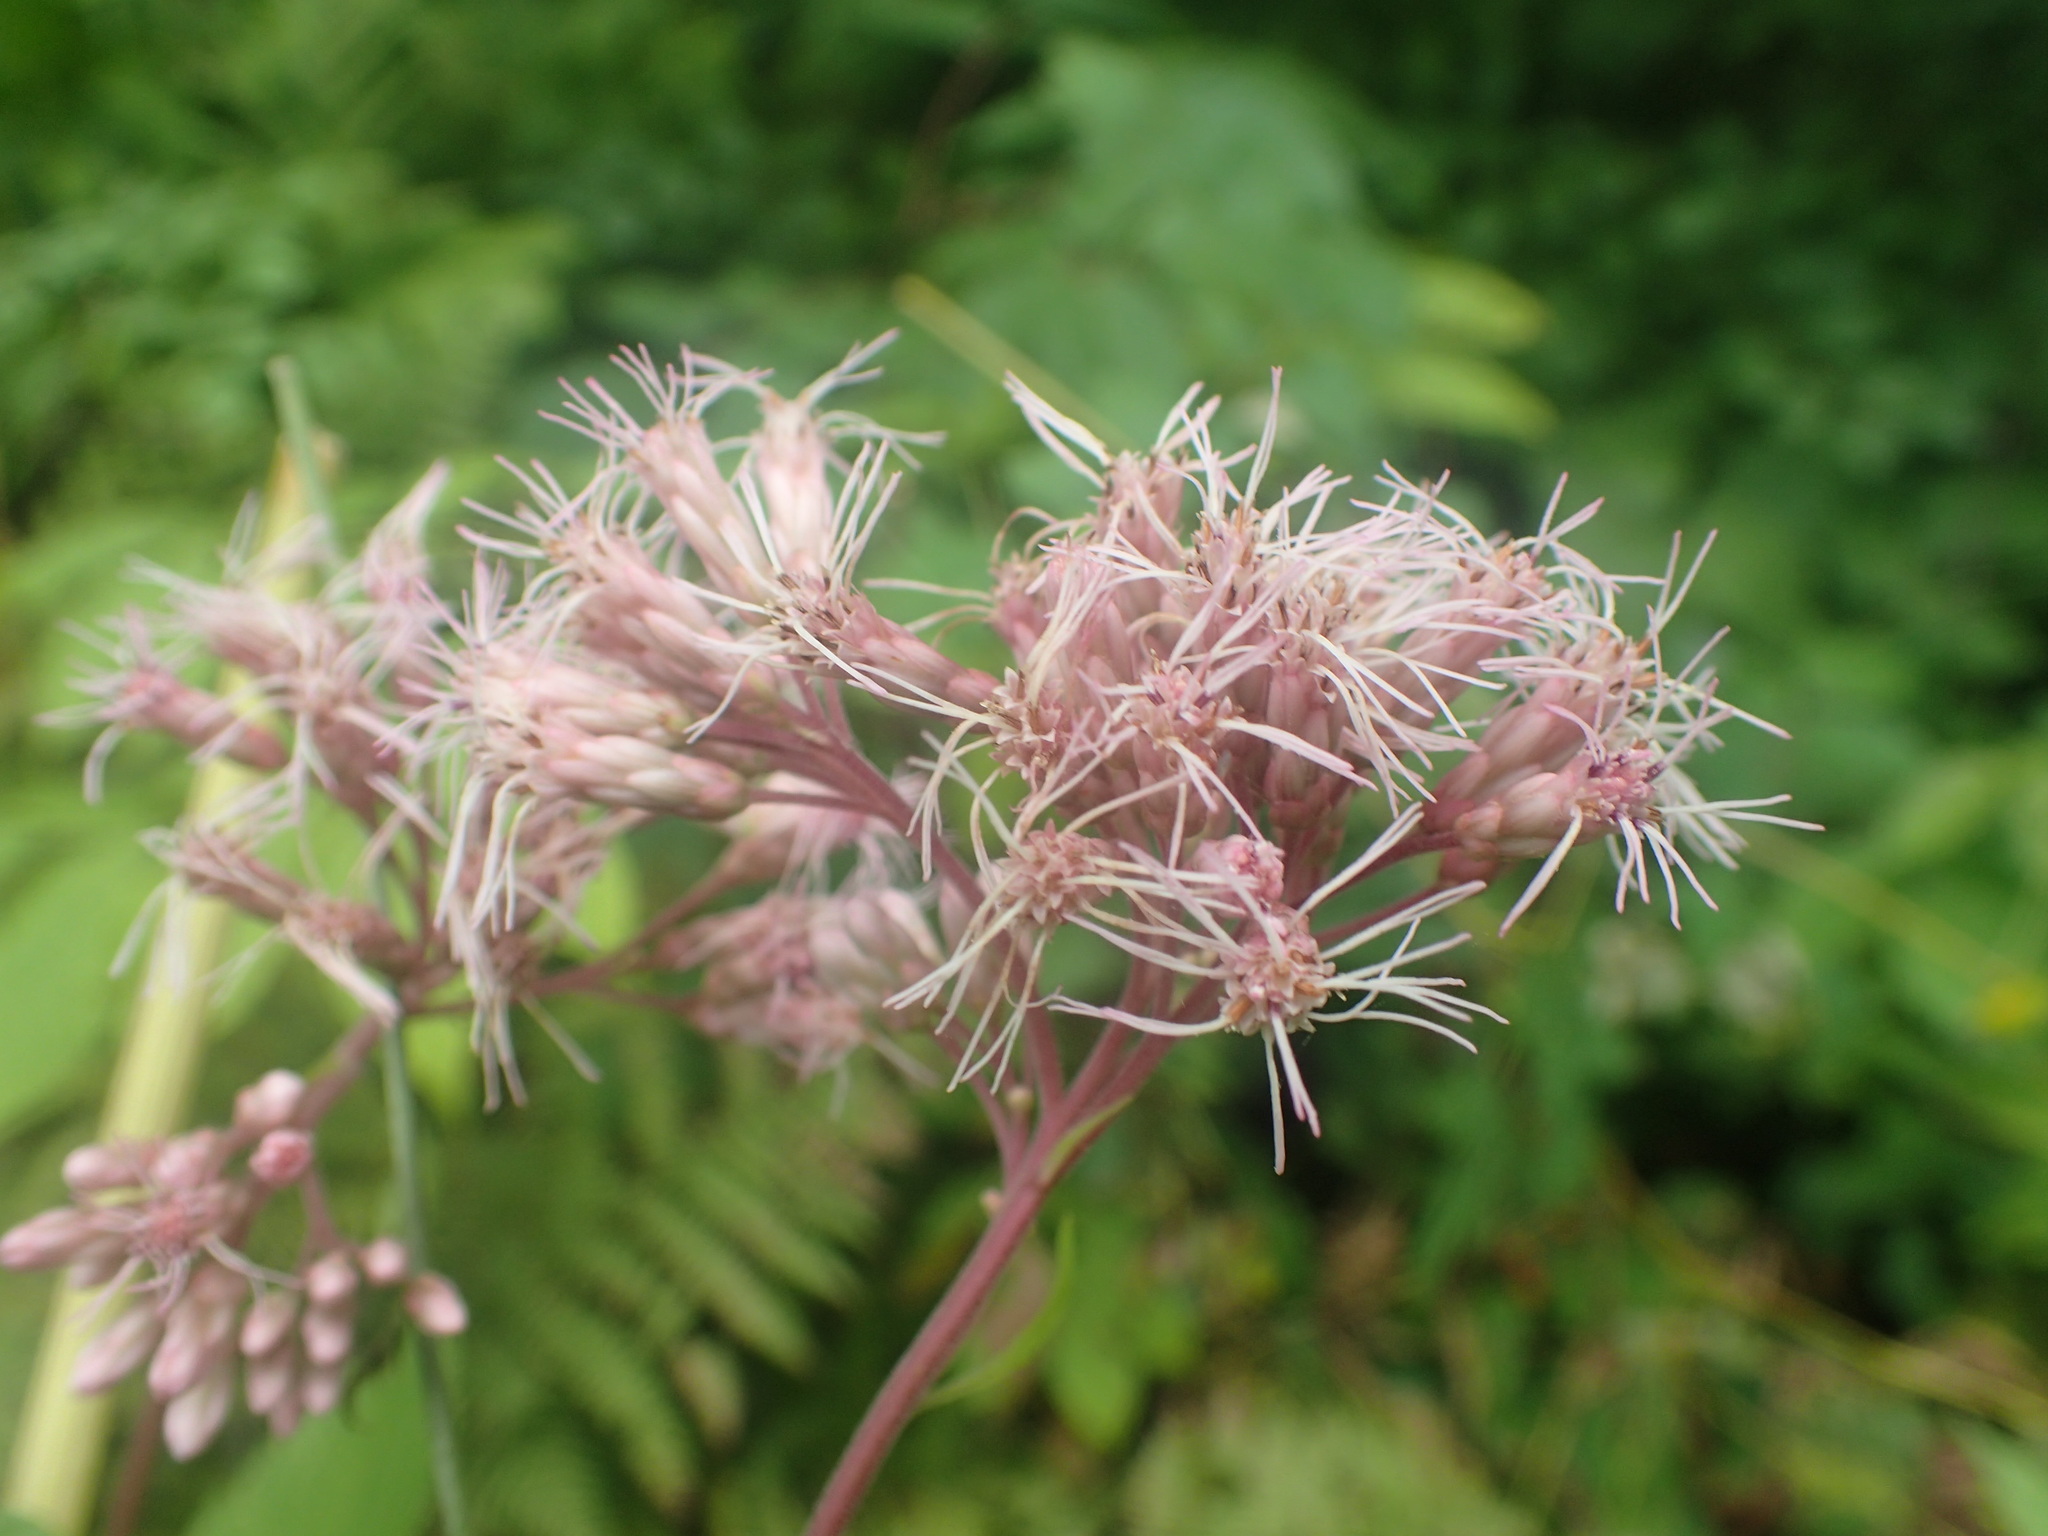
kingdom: Plantae
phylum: Tracheophyta
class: Magnoliopsida
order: Asterales
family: Asteraceae
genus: Eutrochium
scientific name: Eutrochium maculatum
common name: Spotted joe pye weed
